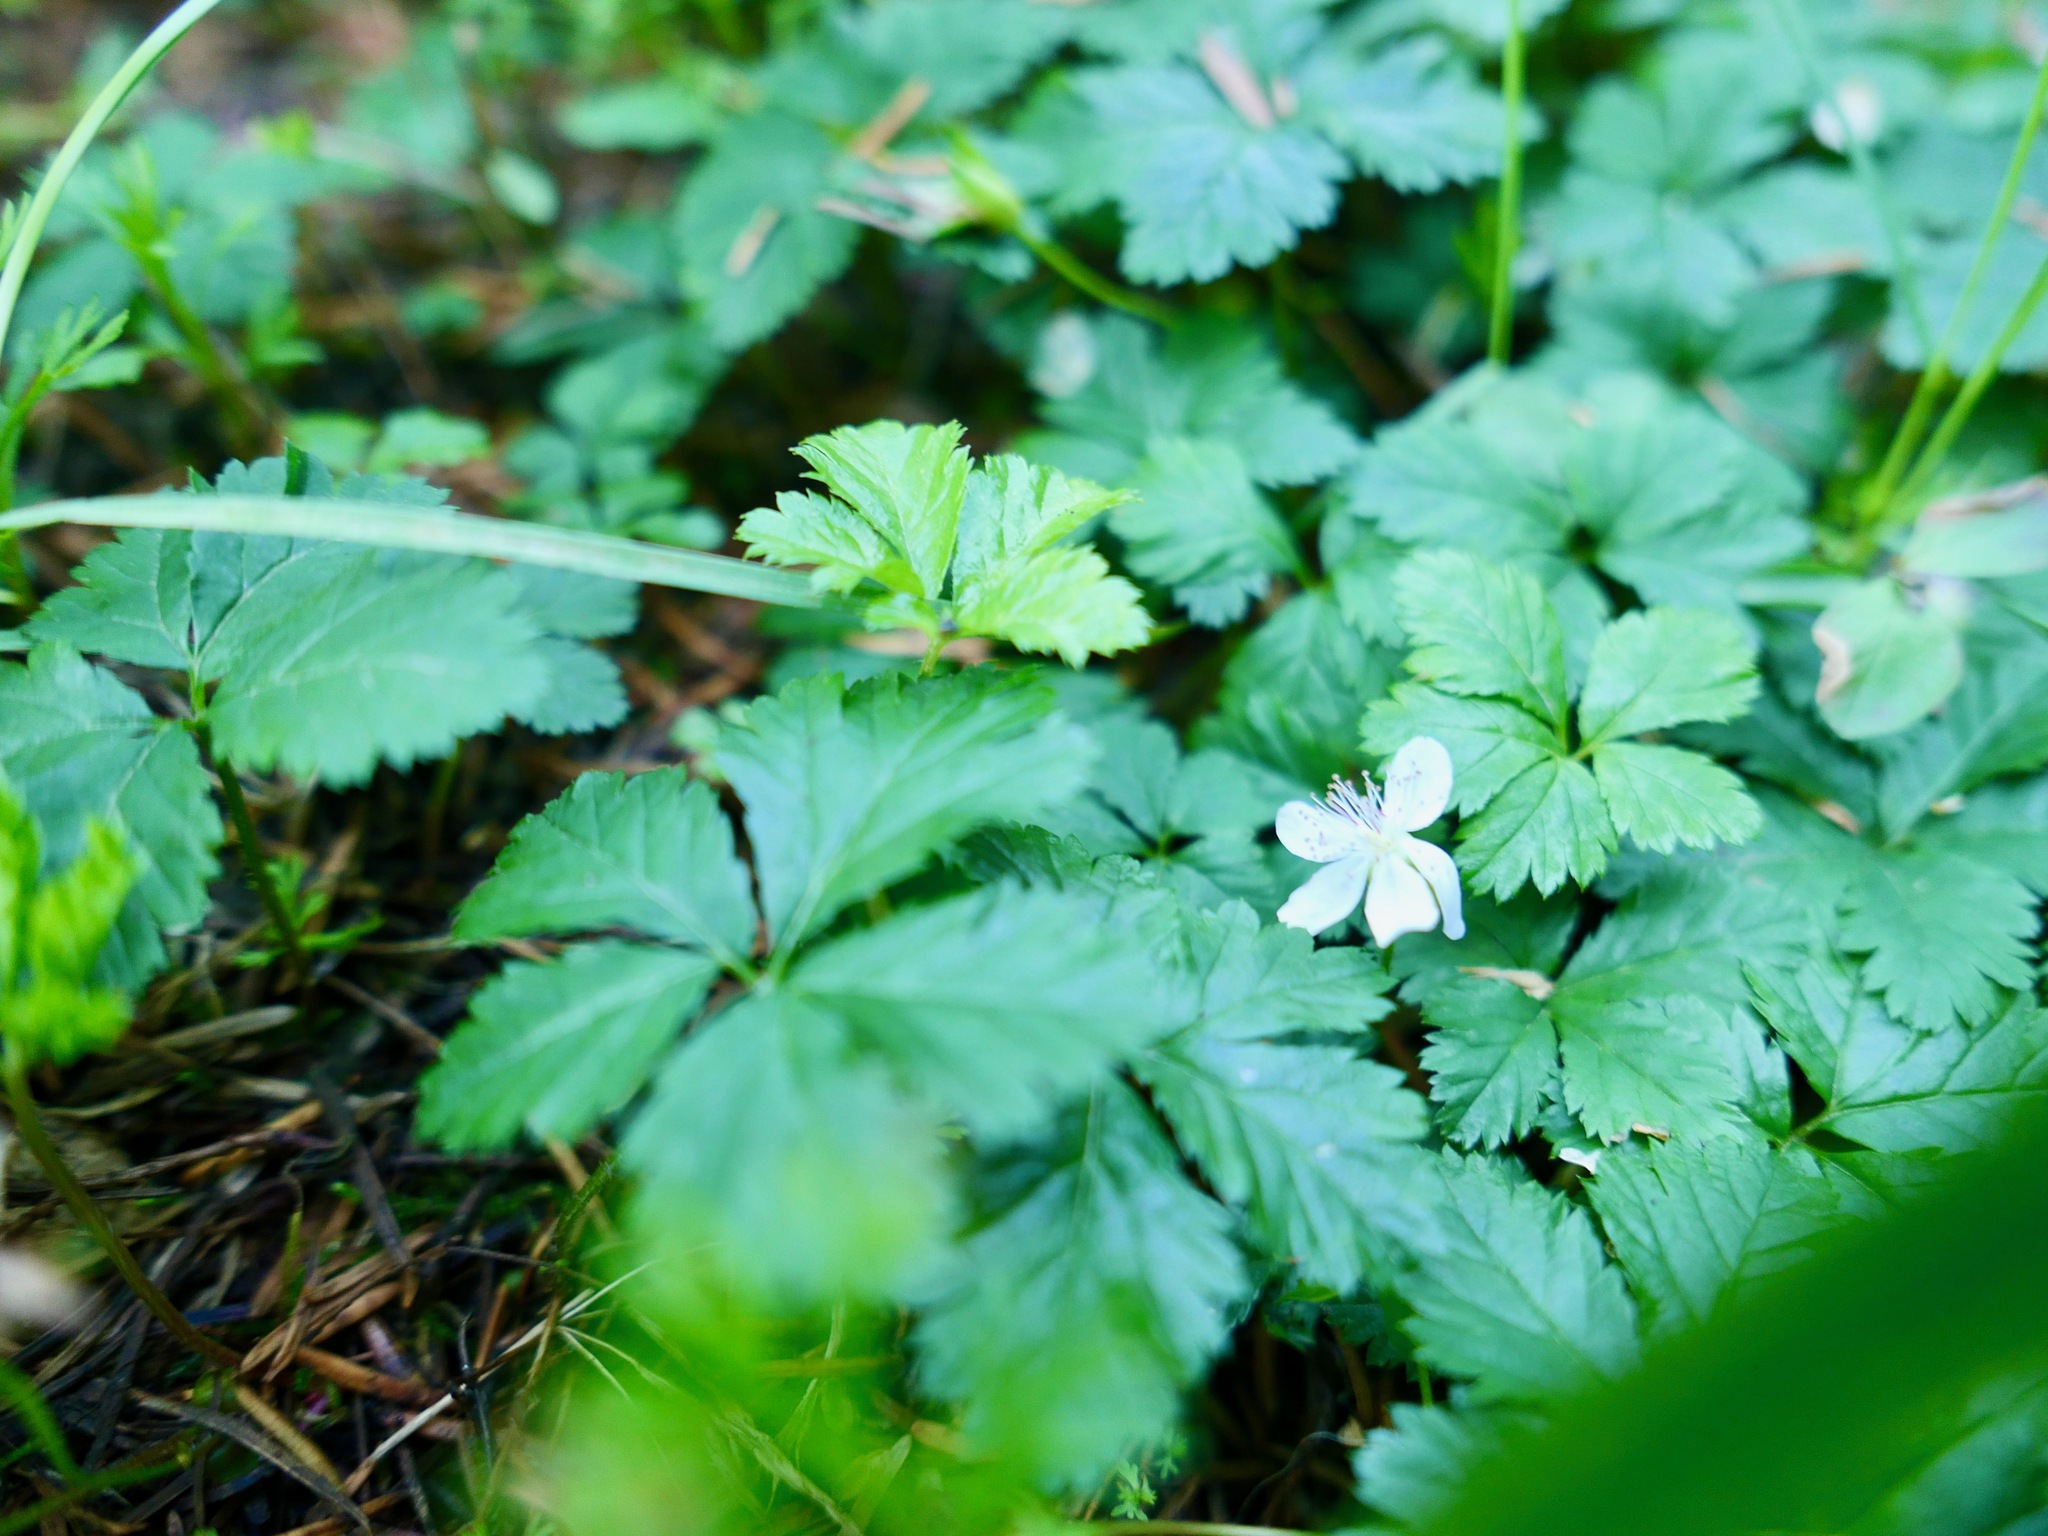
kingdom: Plantae
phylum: Tracheophyta
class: Magnoliopsida
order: Rosales
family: Rosaceae
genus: Rubus
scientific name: Rubus pedatus
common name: Creeping raspberry
